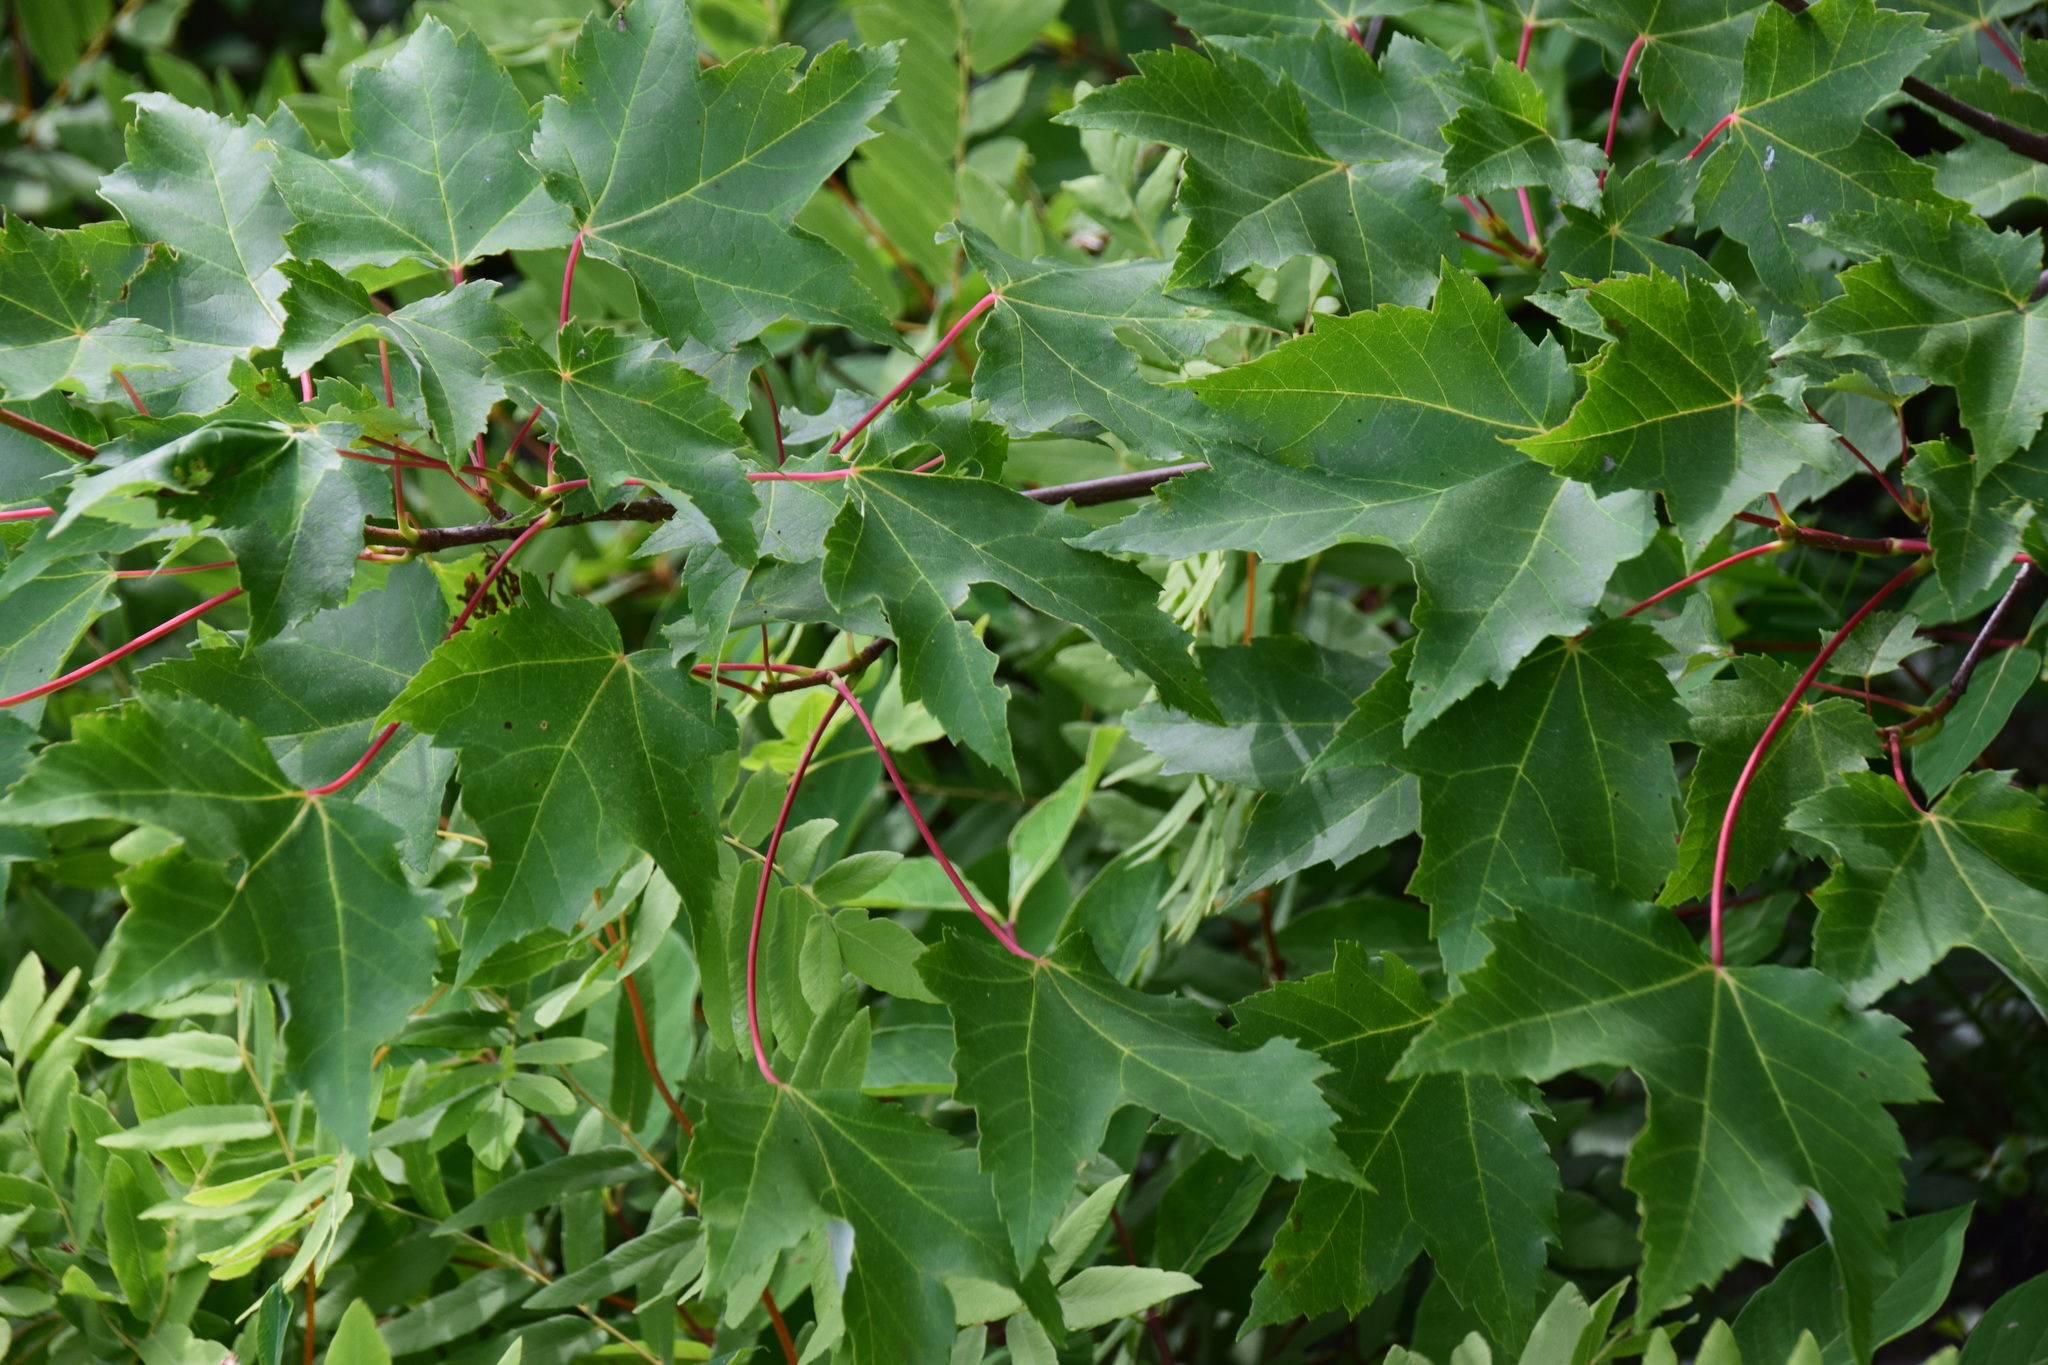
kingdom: Plantae
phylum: Tracheophyta
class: Magnoliopsida
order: Sapindales
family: Sapindaceae
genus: Acer
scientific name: Acer rubrum
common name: Red maple
